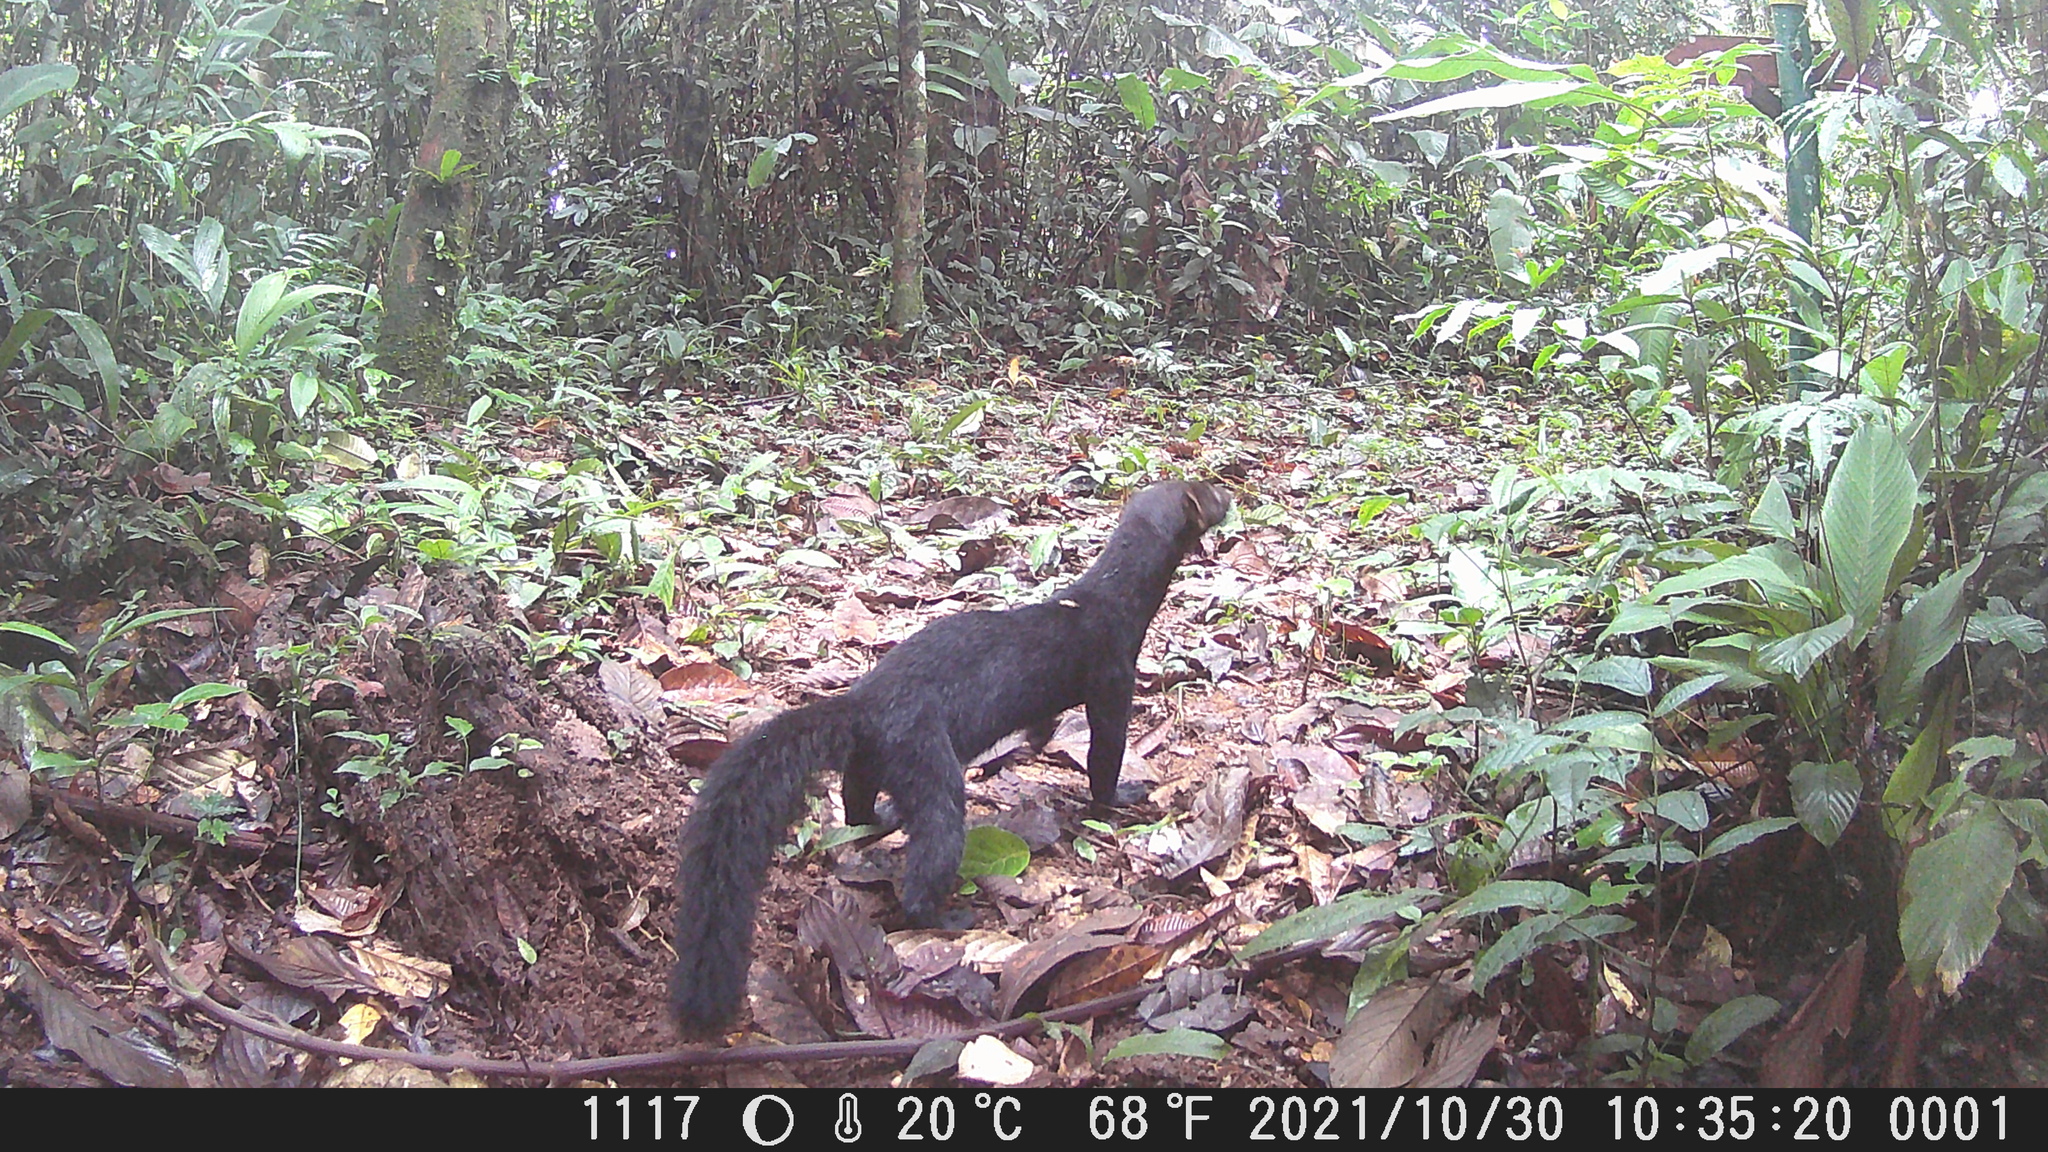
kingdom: Animalia
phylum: Chordata
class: Mammalia
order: Carnivora
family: Mustelidae
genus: Eira
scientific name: Eira barbara
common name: Tayra
